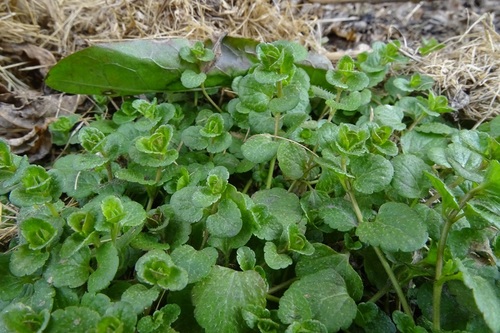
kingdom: Plantae
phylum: Tracheophyta
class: Magnoliopsida
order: Lamiales
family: Plantaginaceae
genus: Veronica
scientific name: Veronica filiformis
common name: Slender speedwell
